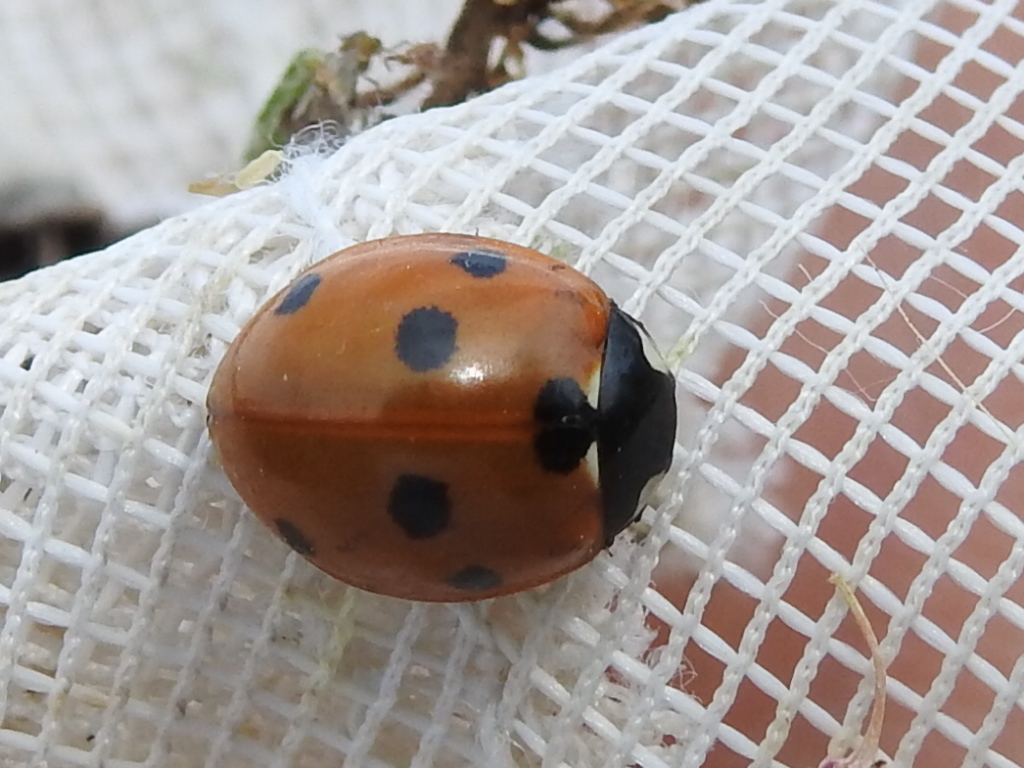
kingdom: Animalia
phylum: Arthropoda
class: Insecta
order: Coleoptera
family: Coccinellidae
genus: Coccinella
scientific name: Coccinella septempunctata
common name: Sevenspotted lady beetle
